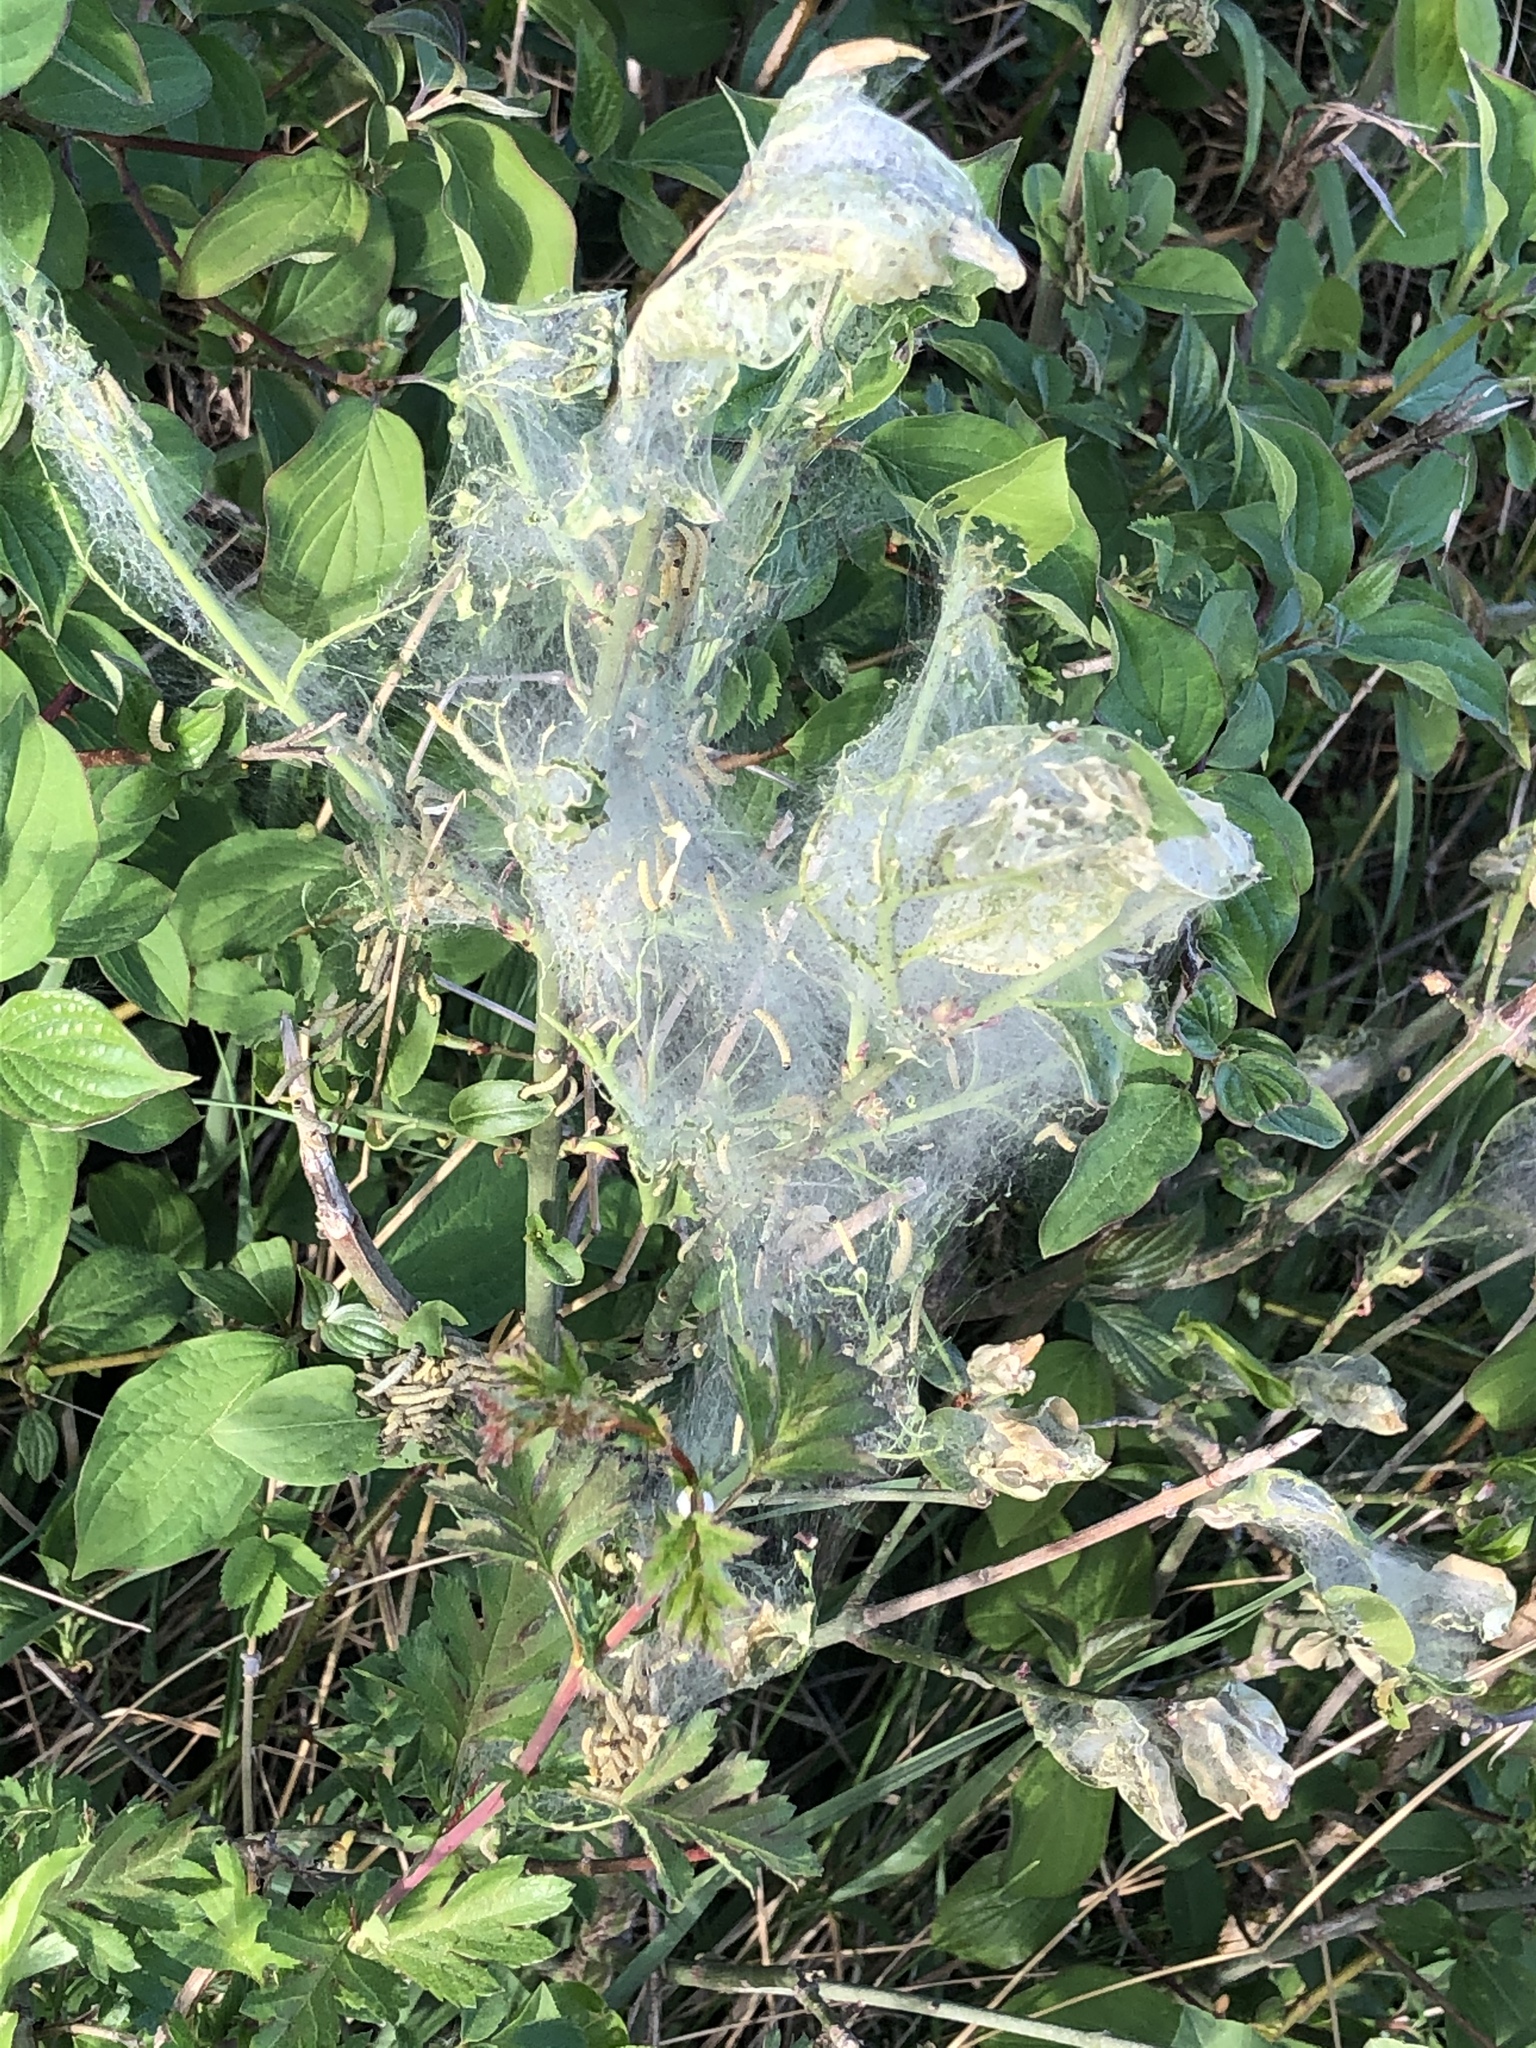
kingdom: Animalia
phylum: Arthropoda
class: Insecta
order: Lepidoptera
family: Yponomeutidae
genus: Yponomeuta
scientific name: Yponomeuta cagnagellus
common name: Spindle ermine
